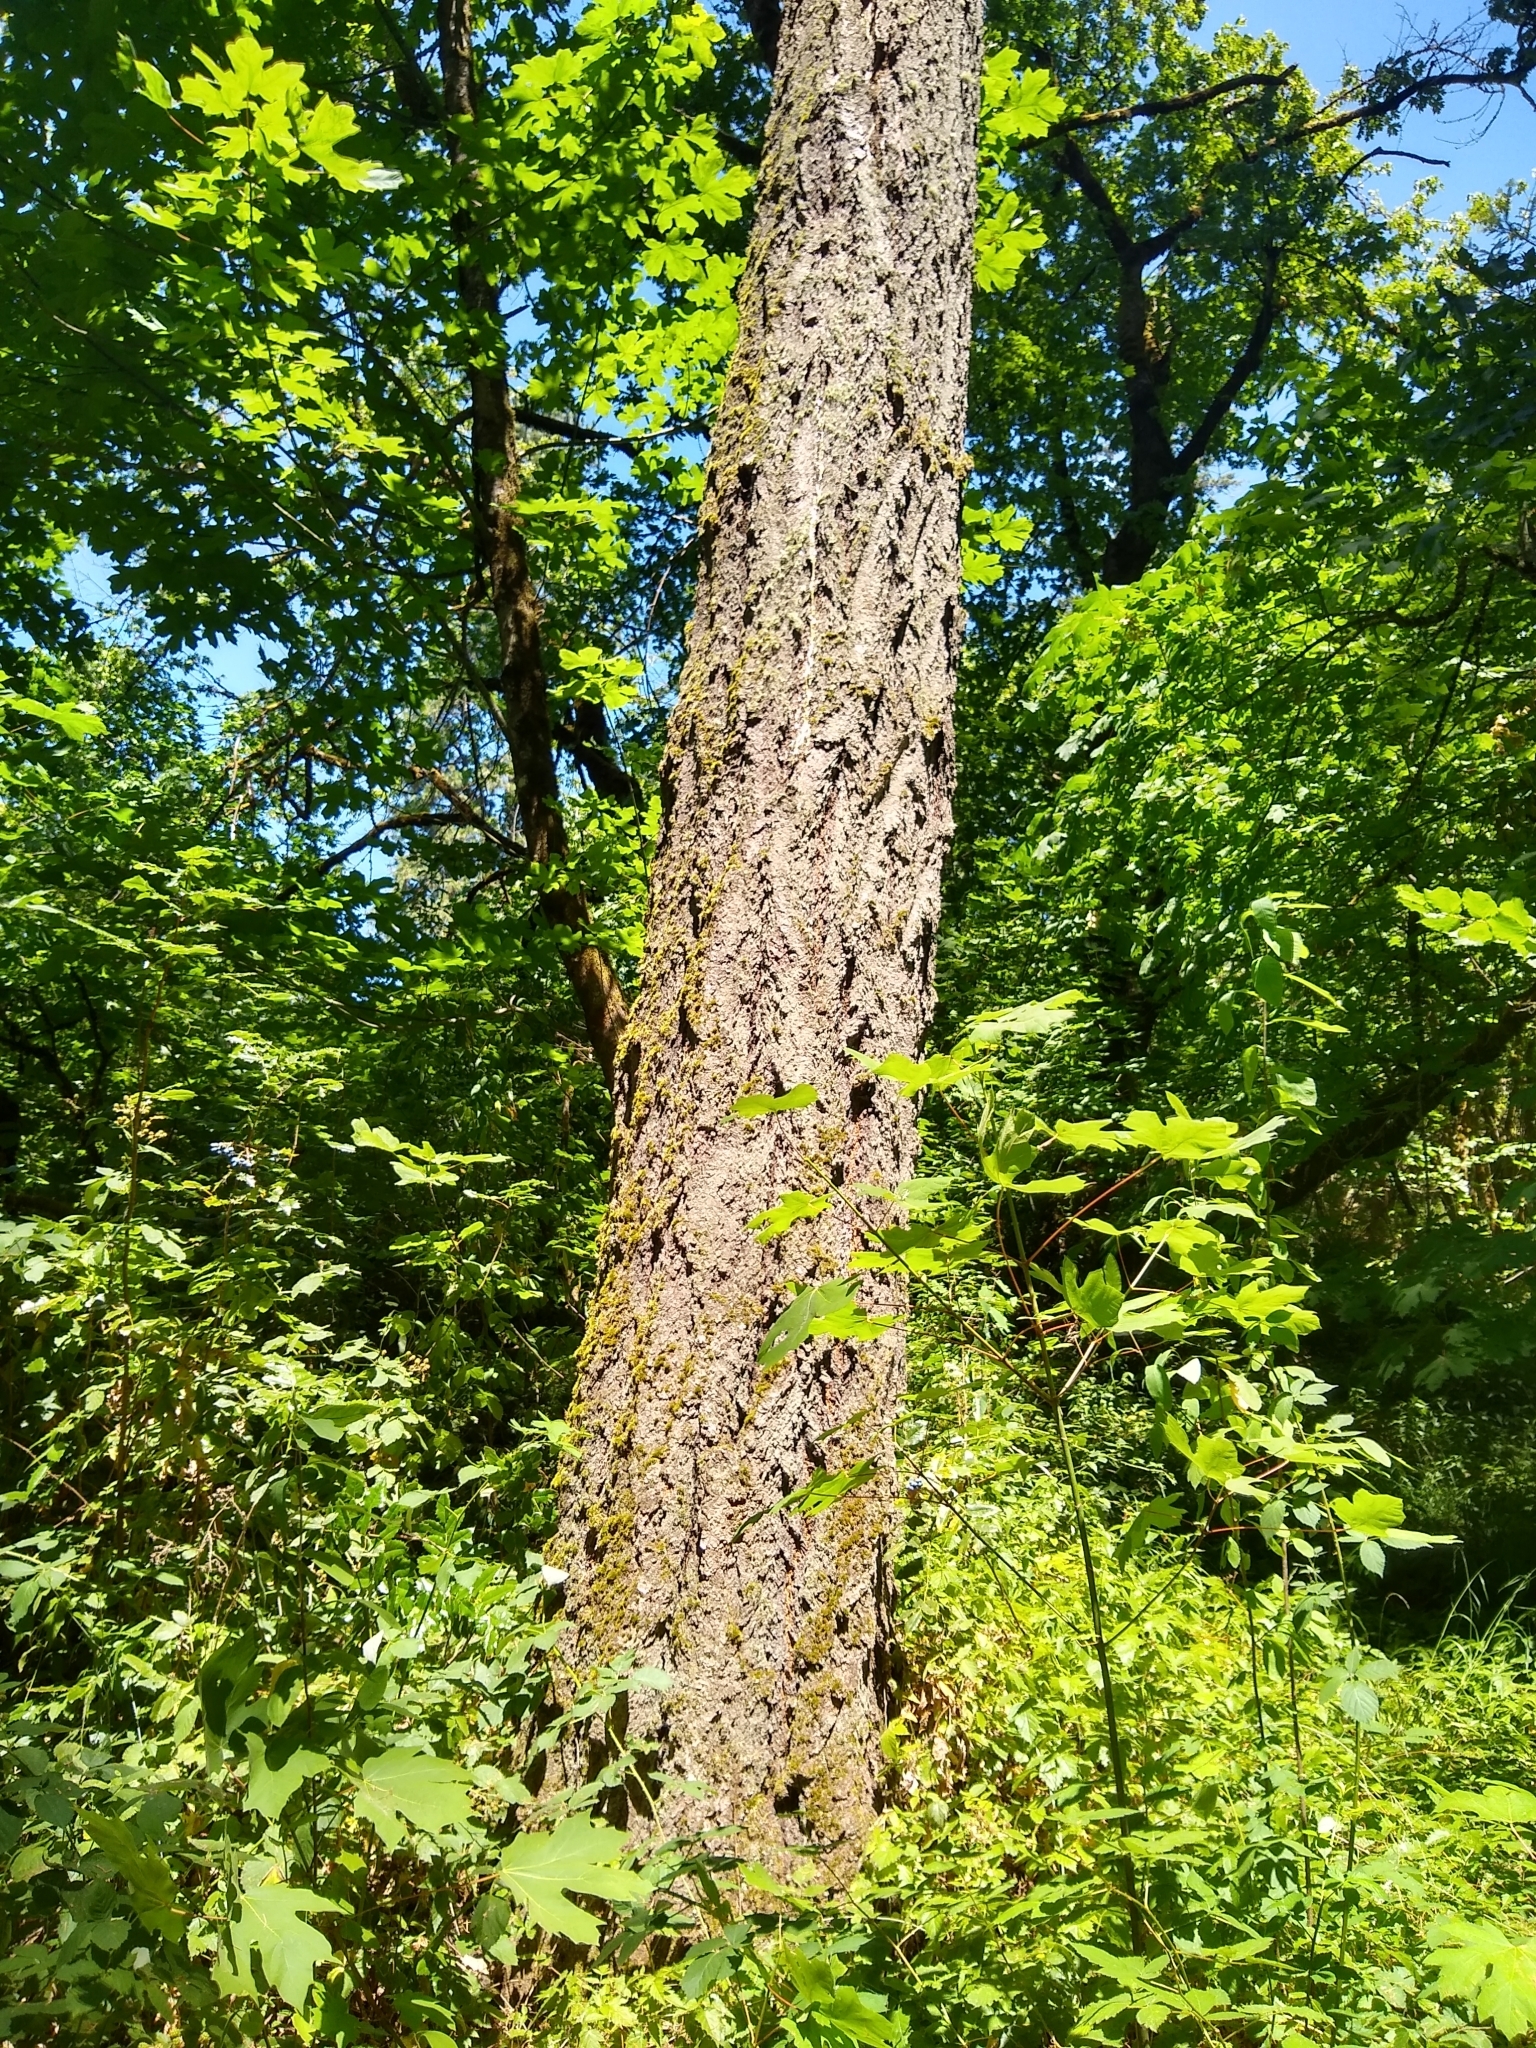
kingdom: Plantae
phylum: Tracheophyta
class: Pinopsida
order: Pinales
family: Pinaceae
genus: Pseudotsuga
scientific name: Pseudotsuga menziesii
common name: Douglas fir
